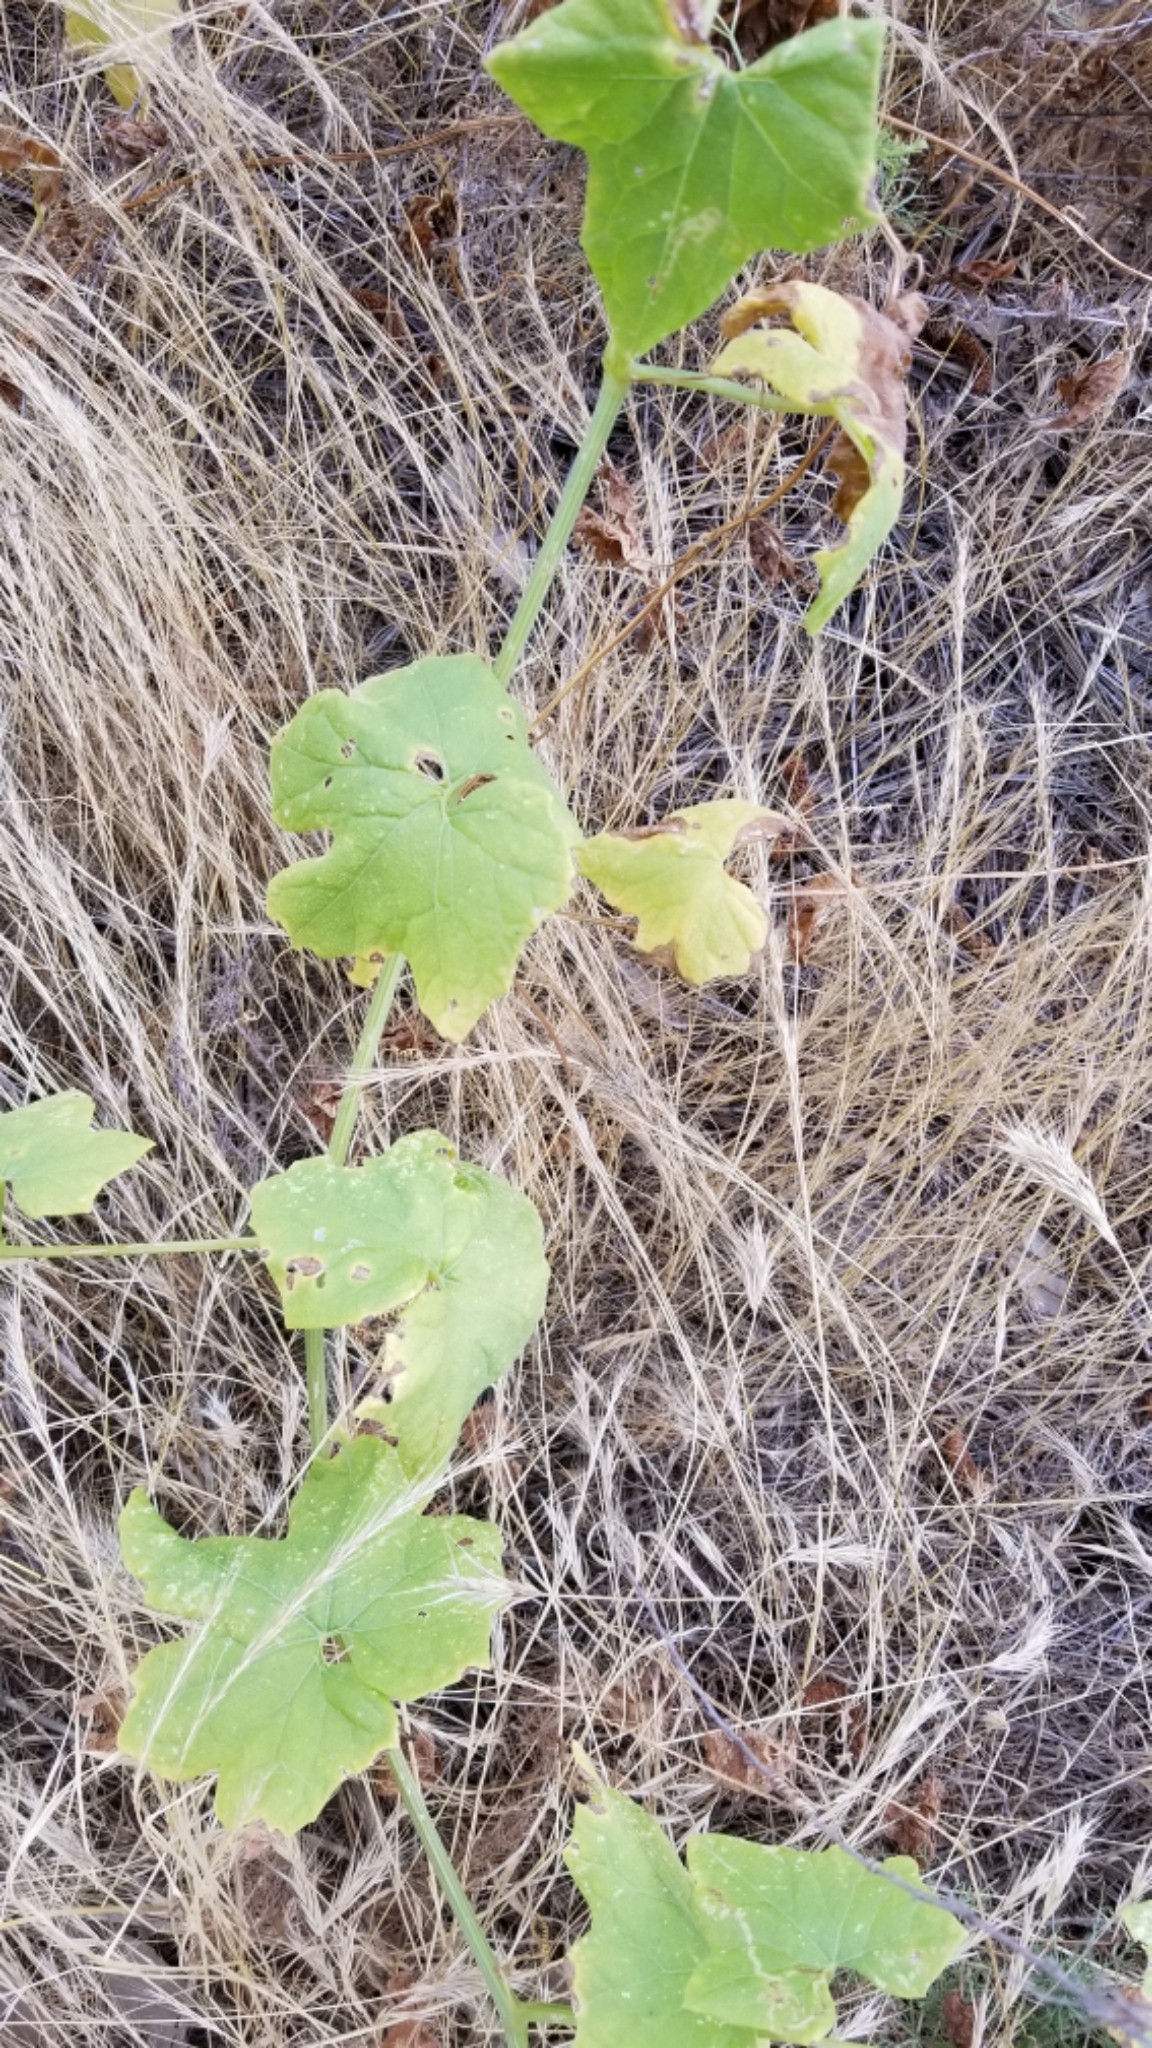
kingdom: Plantae
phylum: Tracheophyta
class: Magnoliopsida
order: Cucurbitales
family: Cucurbitaceae
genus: Marah
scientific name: Marah macrocarpa
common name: Cucamonga manroot
